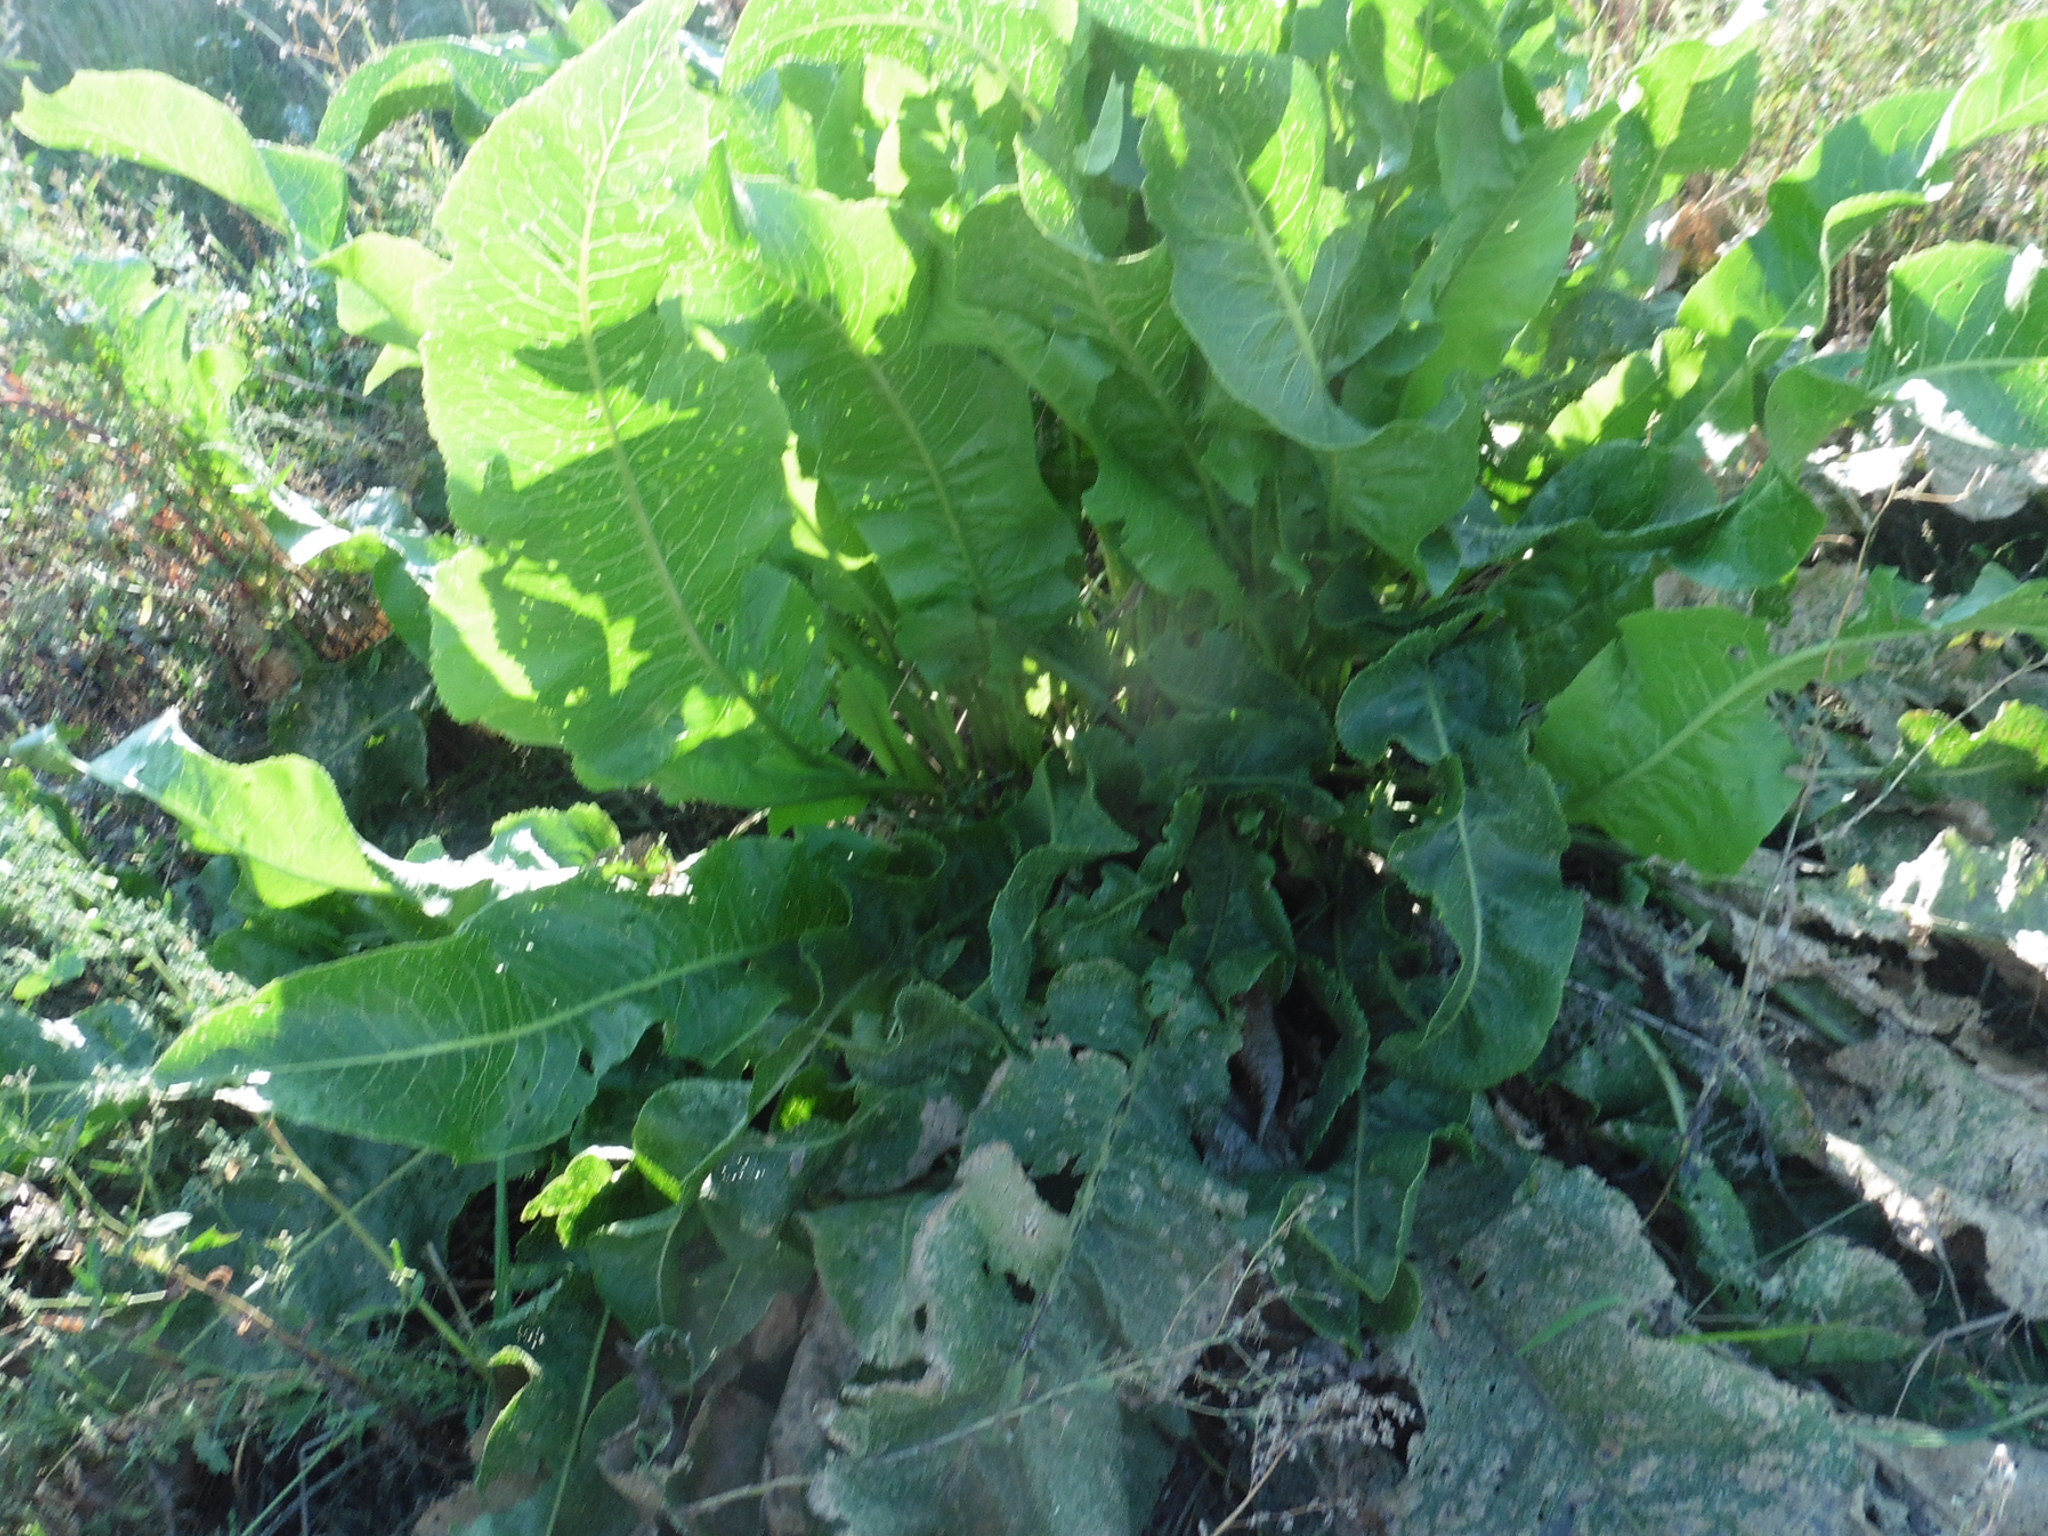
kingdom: Plantae
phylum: Tracheophyta
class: Magnoliopsida
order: Brassicales
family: Brassicaceae
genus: Armoracia
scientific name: Armoracia rusticana
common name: Horseradish
